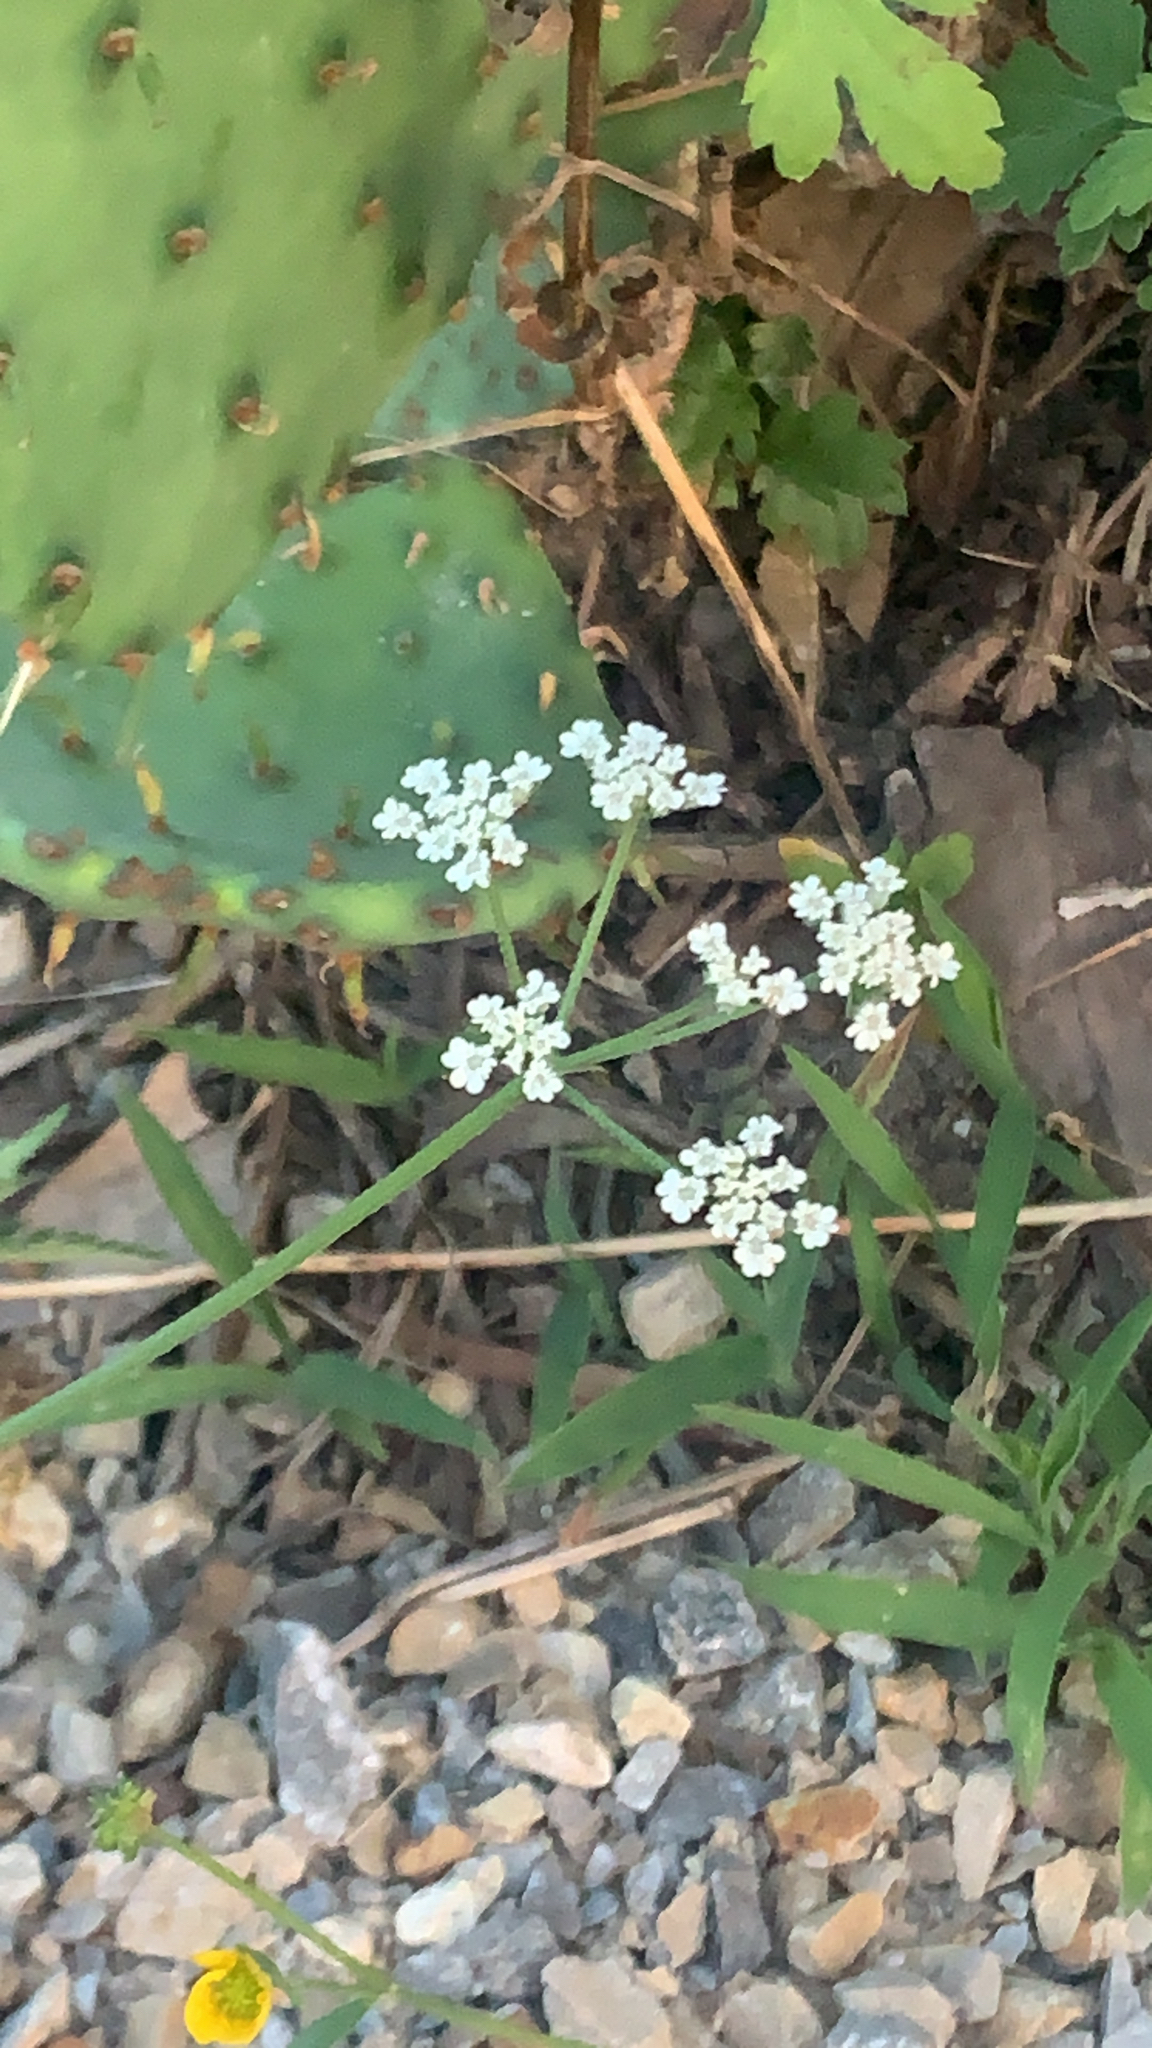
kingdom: Plantae
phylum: Tracheophyta
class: Magnoliopsida
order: Apiales
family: Apiaceae
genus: Torilis
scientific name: Torilis arvensis
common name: Spreading hedge-parsley
